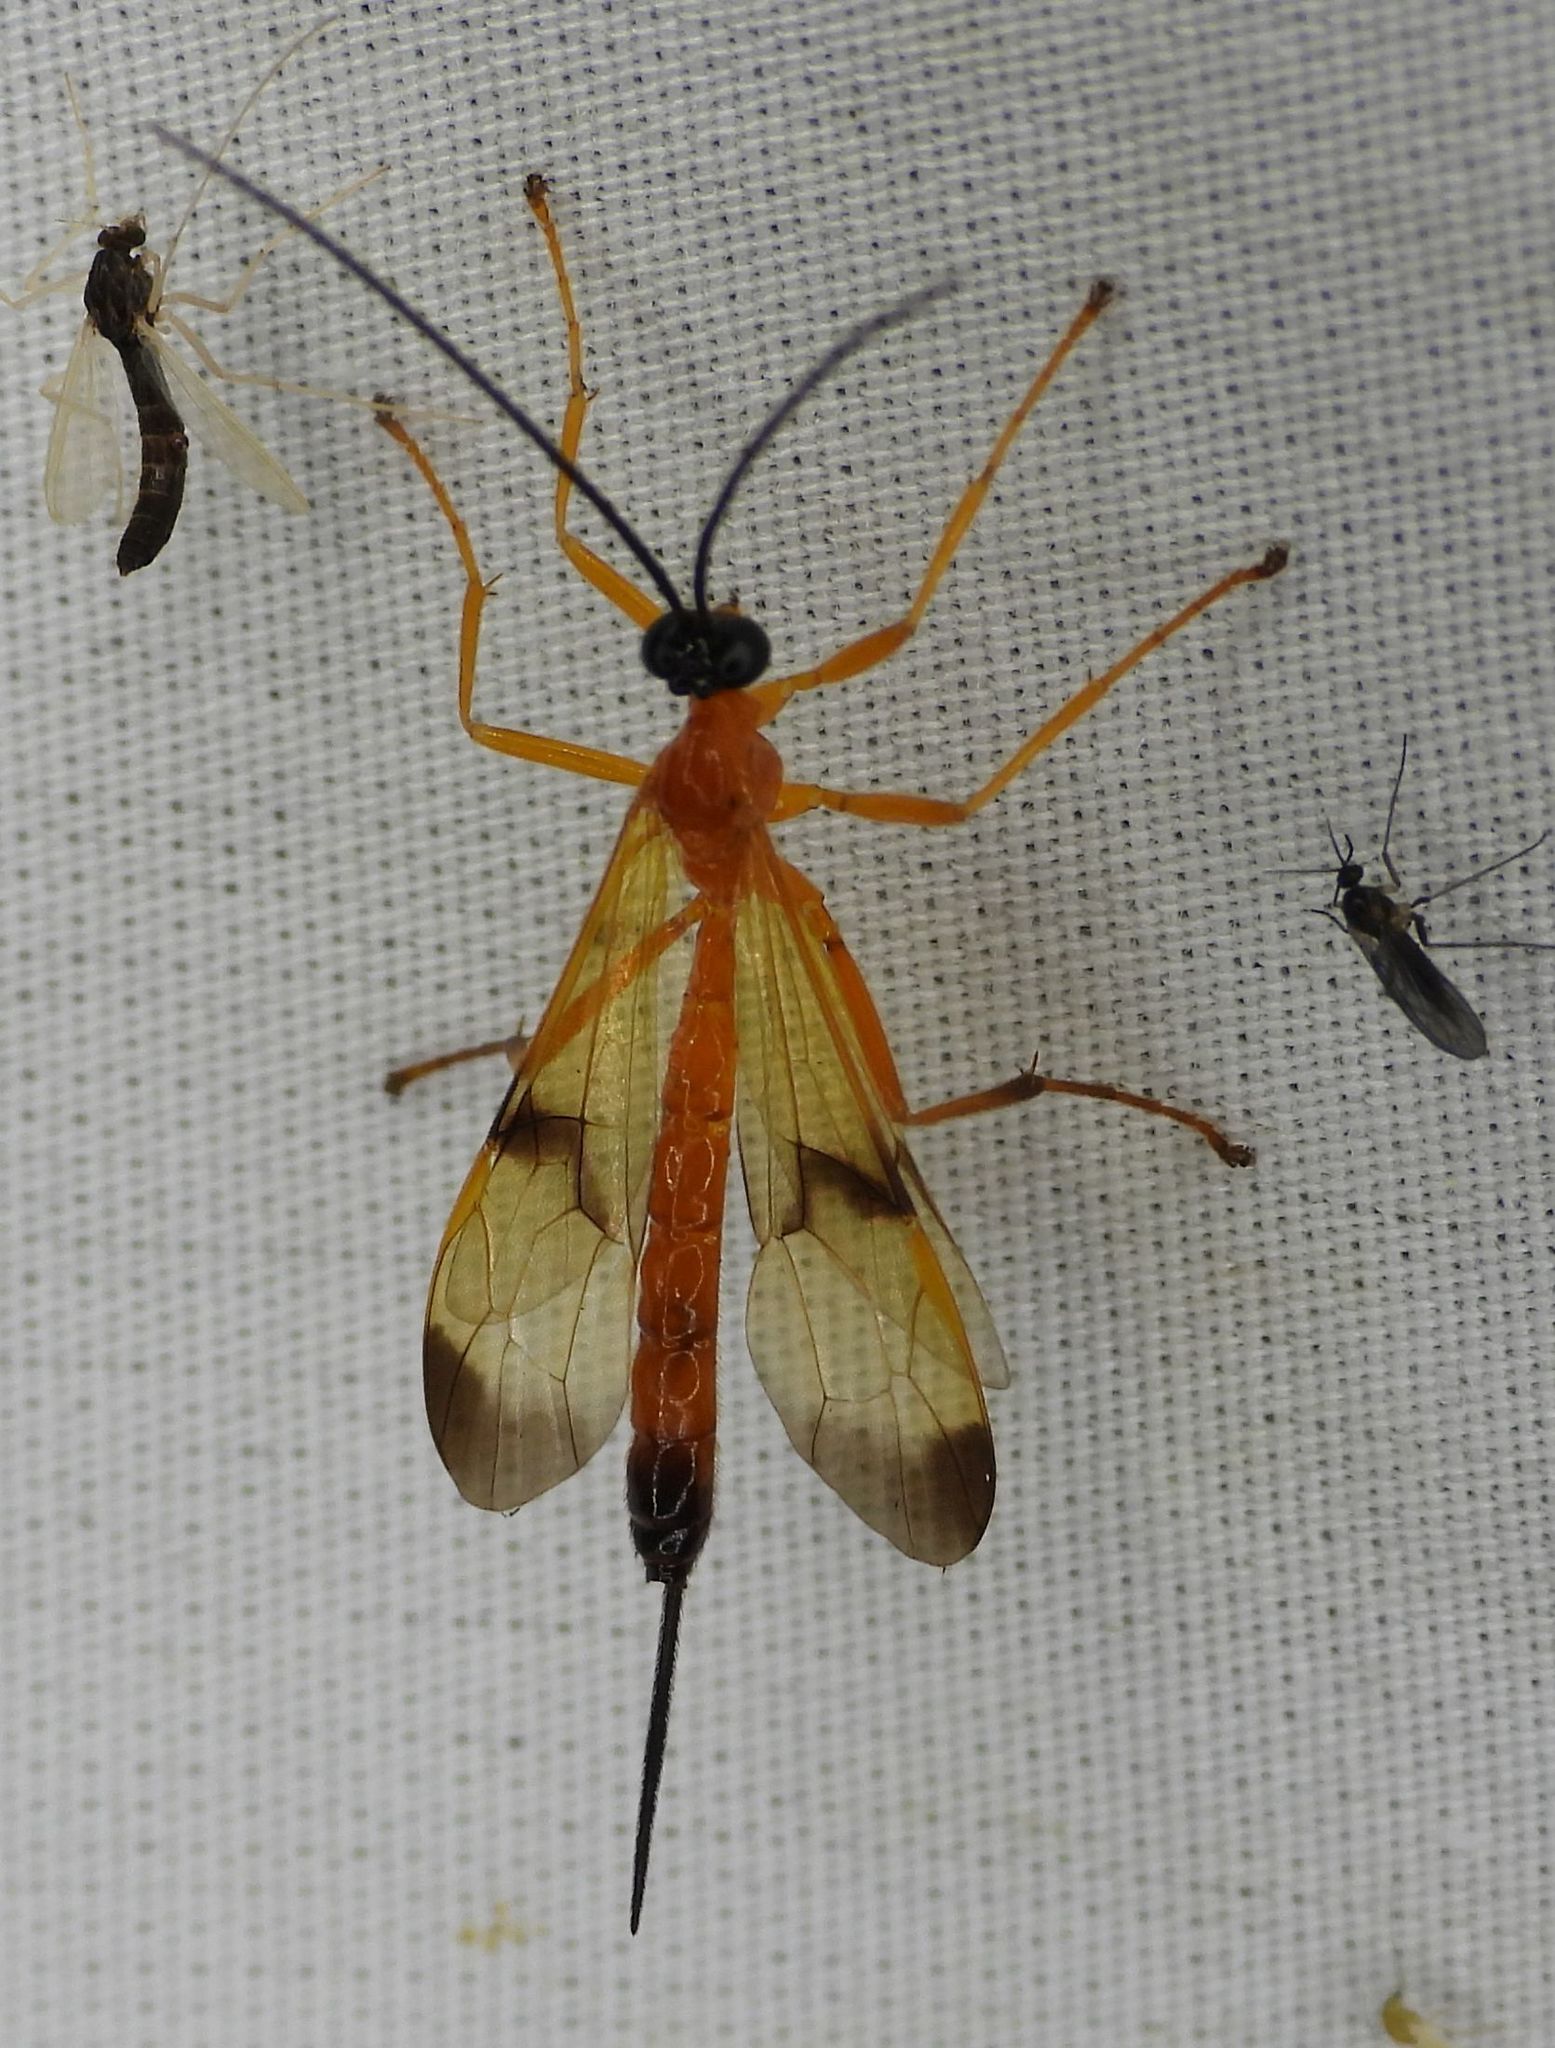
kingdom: Animalia
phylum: Arthropoda
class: Insecta
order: Hymenoptera
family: Ichneumonidae
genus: Acrotaphus
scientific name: Acrotaphus wiltii
